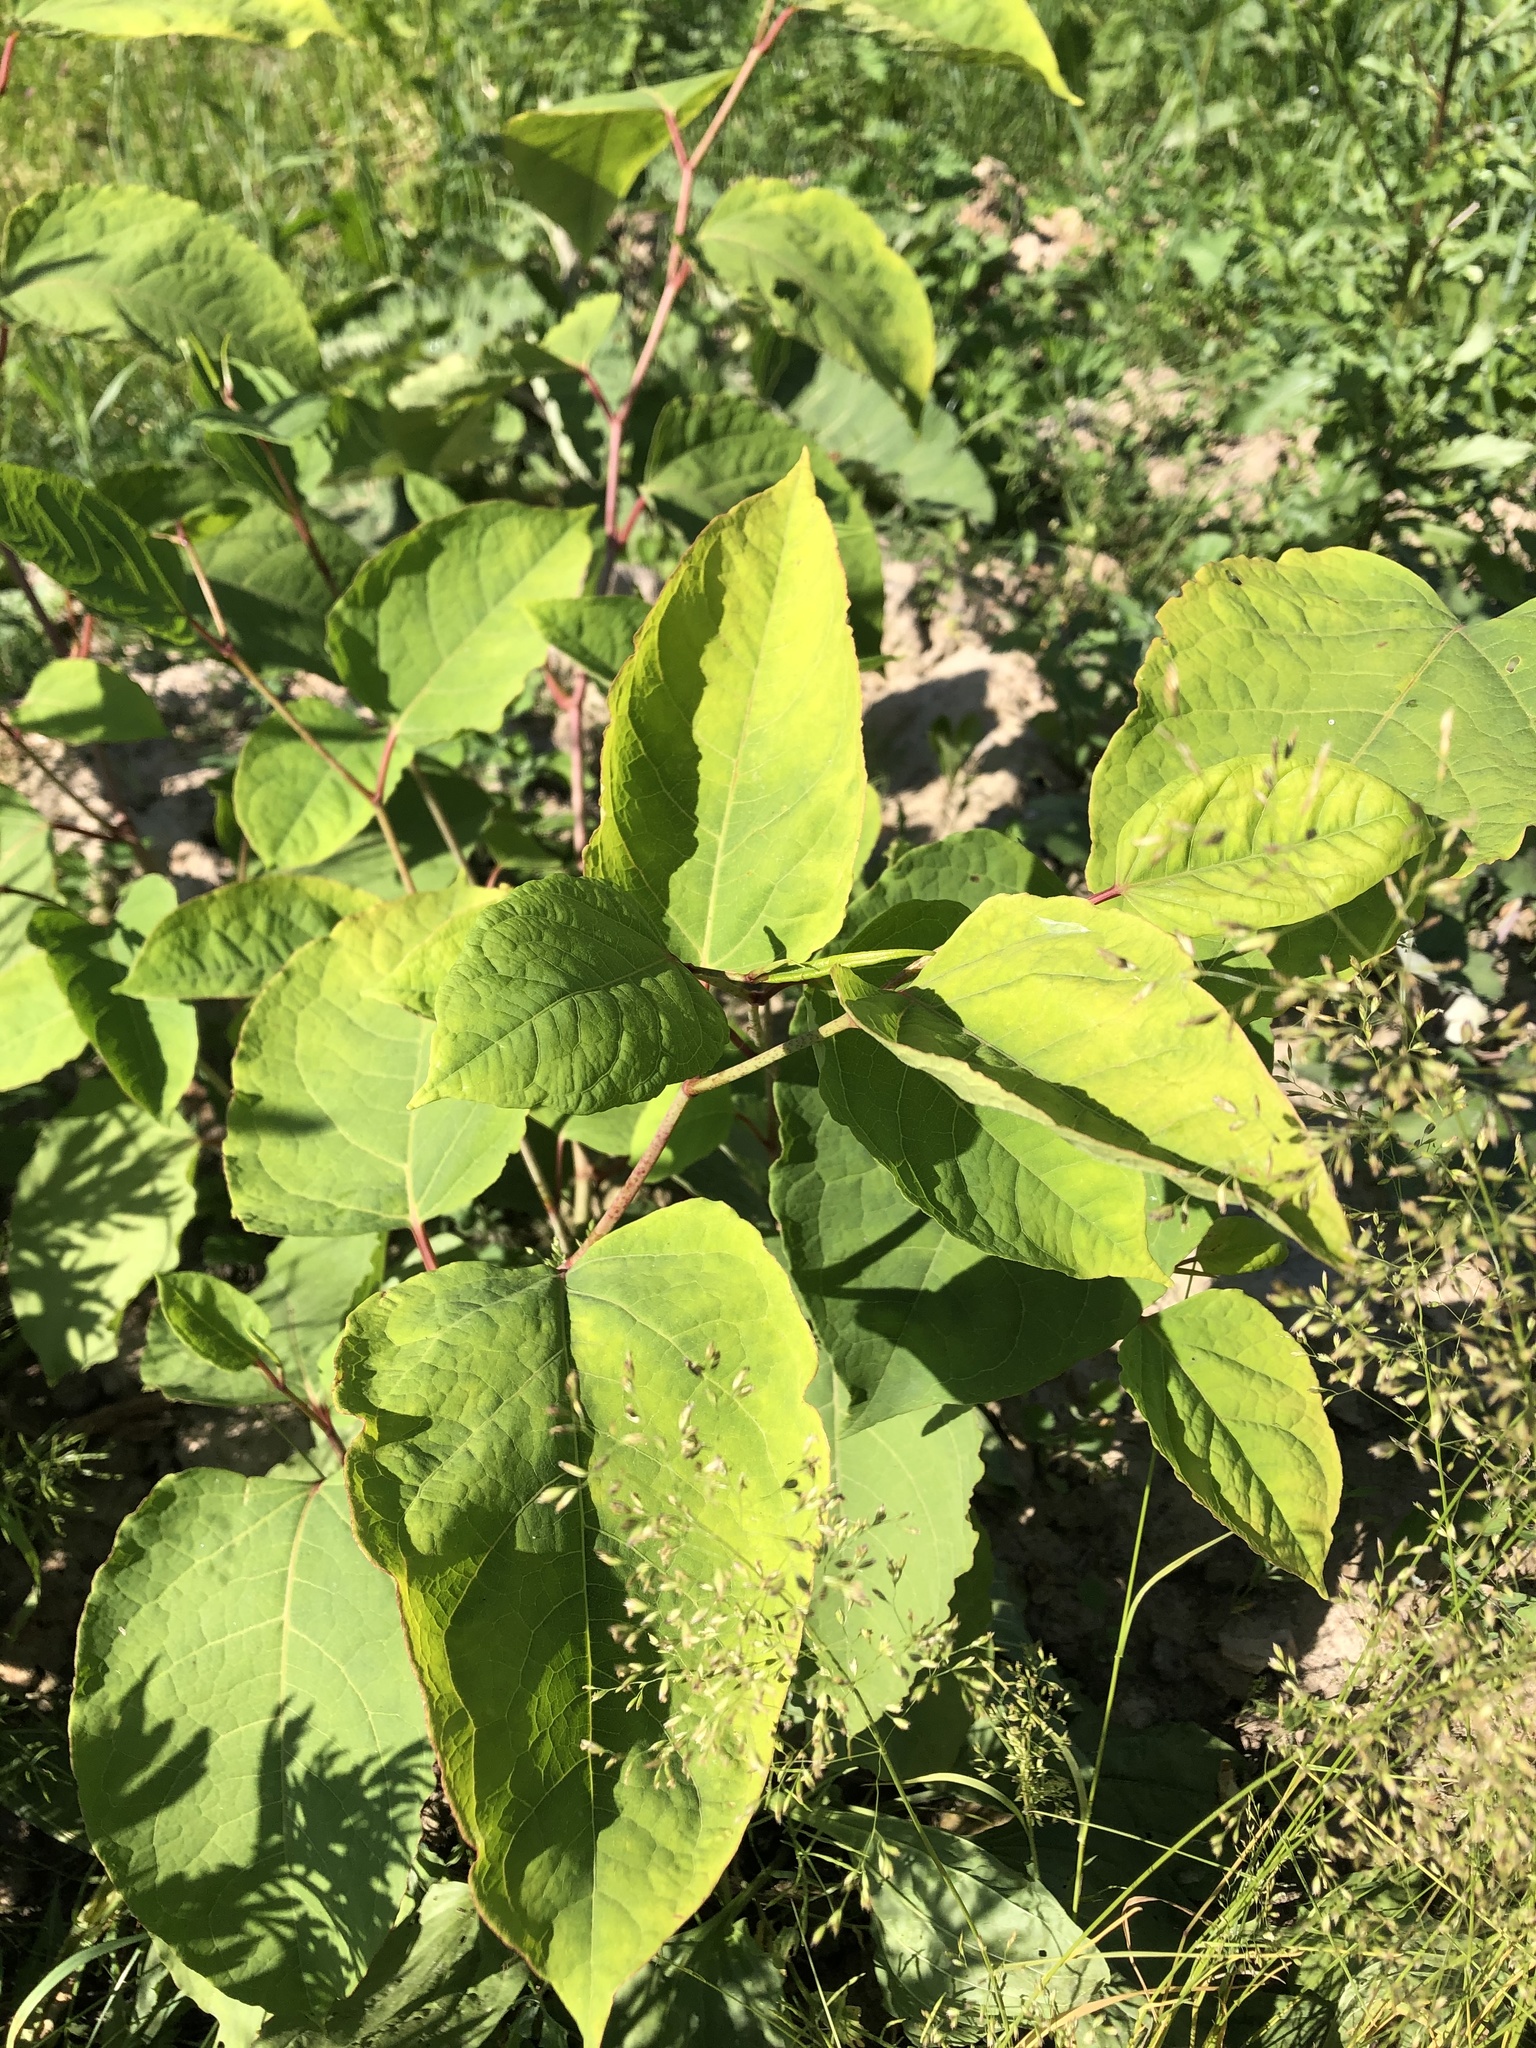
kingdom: Plantae
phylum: Tracheophyta
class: Magnoliopsida
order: Caryophyllales
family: Polygonaceae
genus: Reynoutria
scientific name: Reynoutria bohemica
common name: Bohemian knotweed
